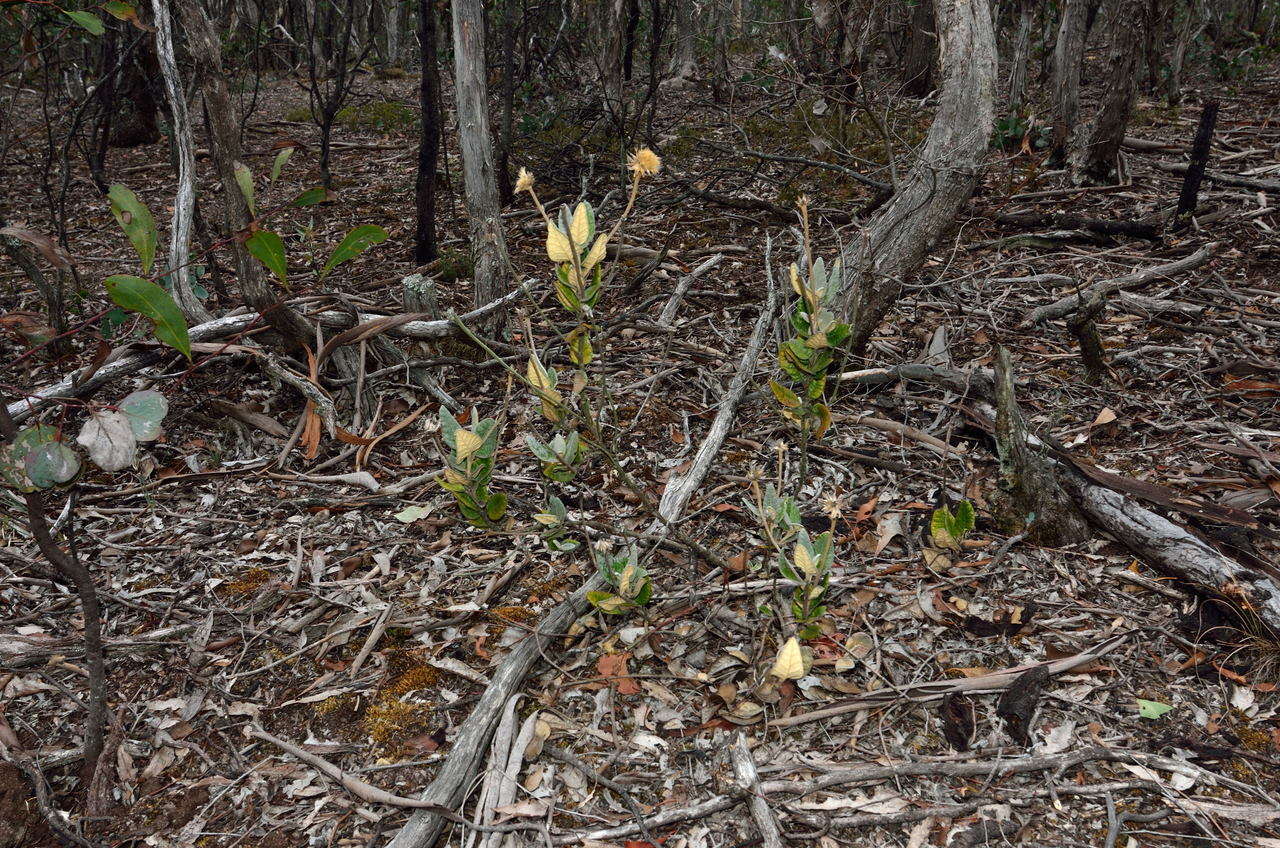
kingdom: Plantae
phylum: Tracheophyta
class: Magnoliopsida
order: Asterales
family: Asteraceae
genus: Olearia
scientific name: Olearia pannosa
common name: Velvet daisybush
